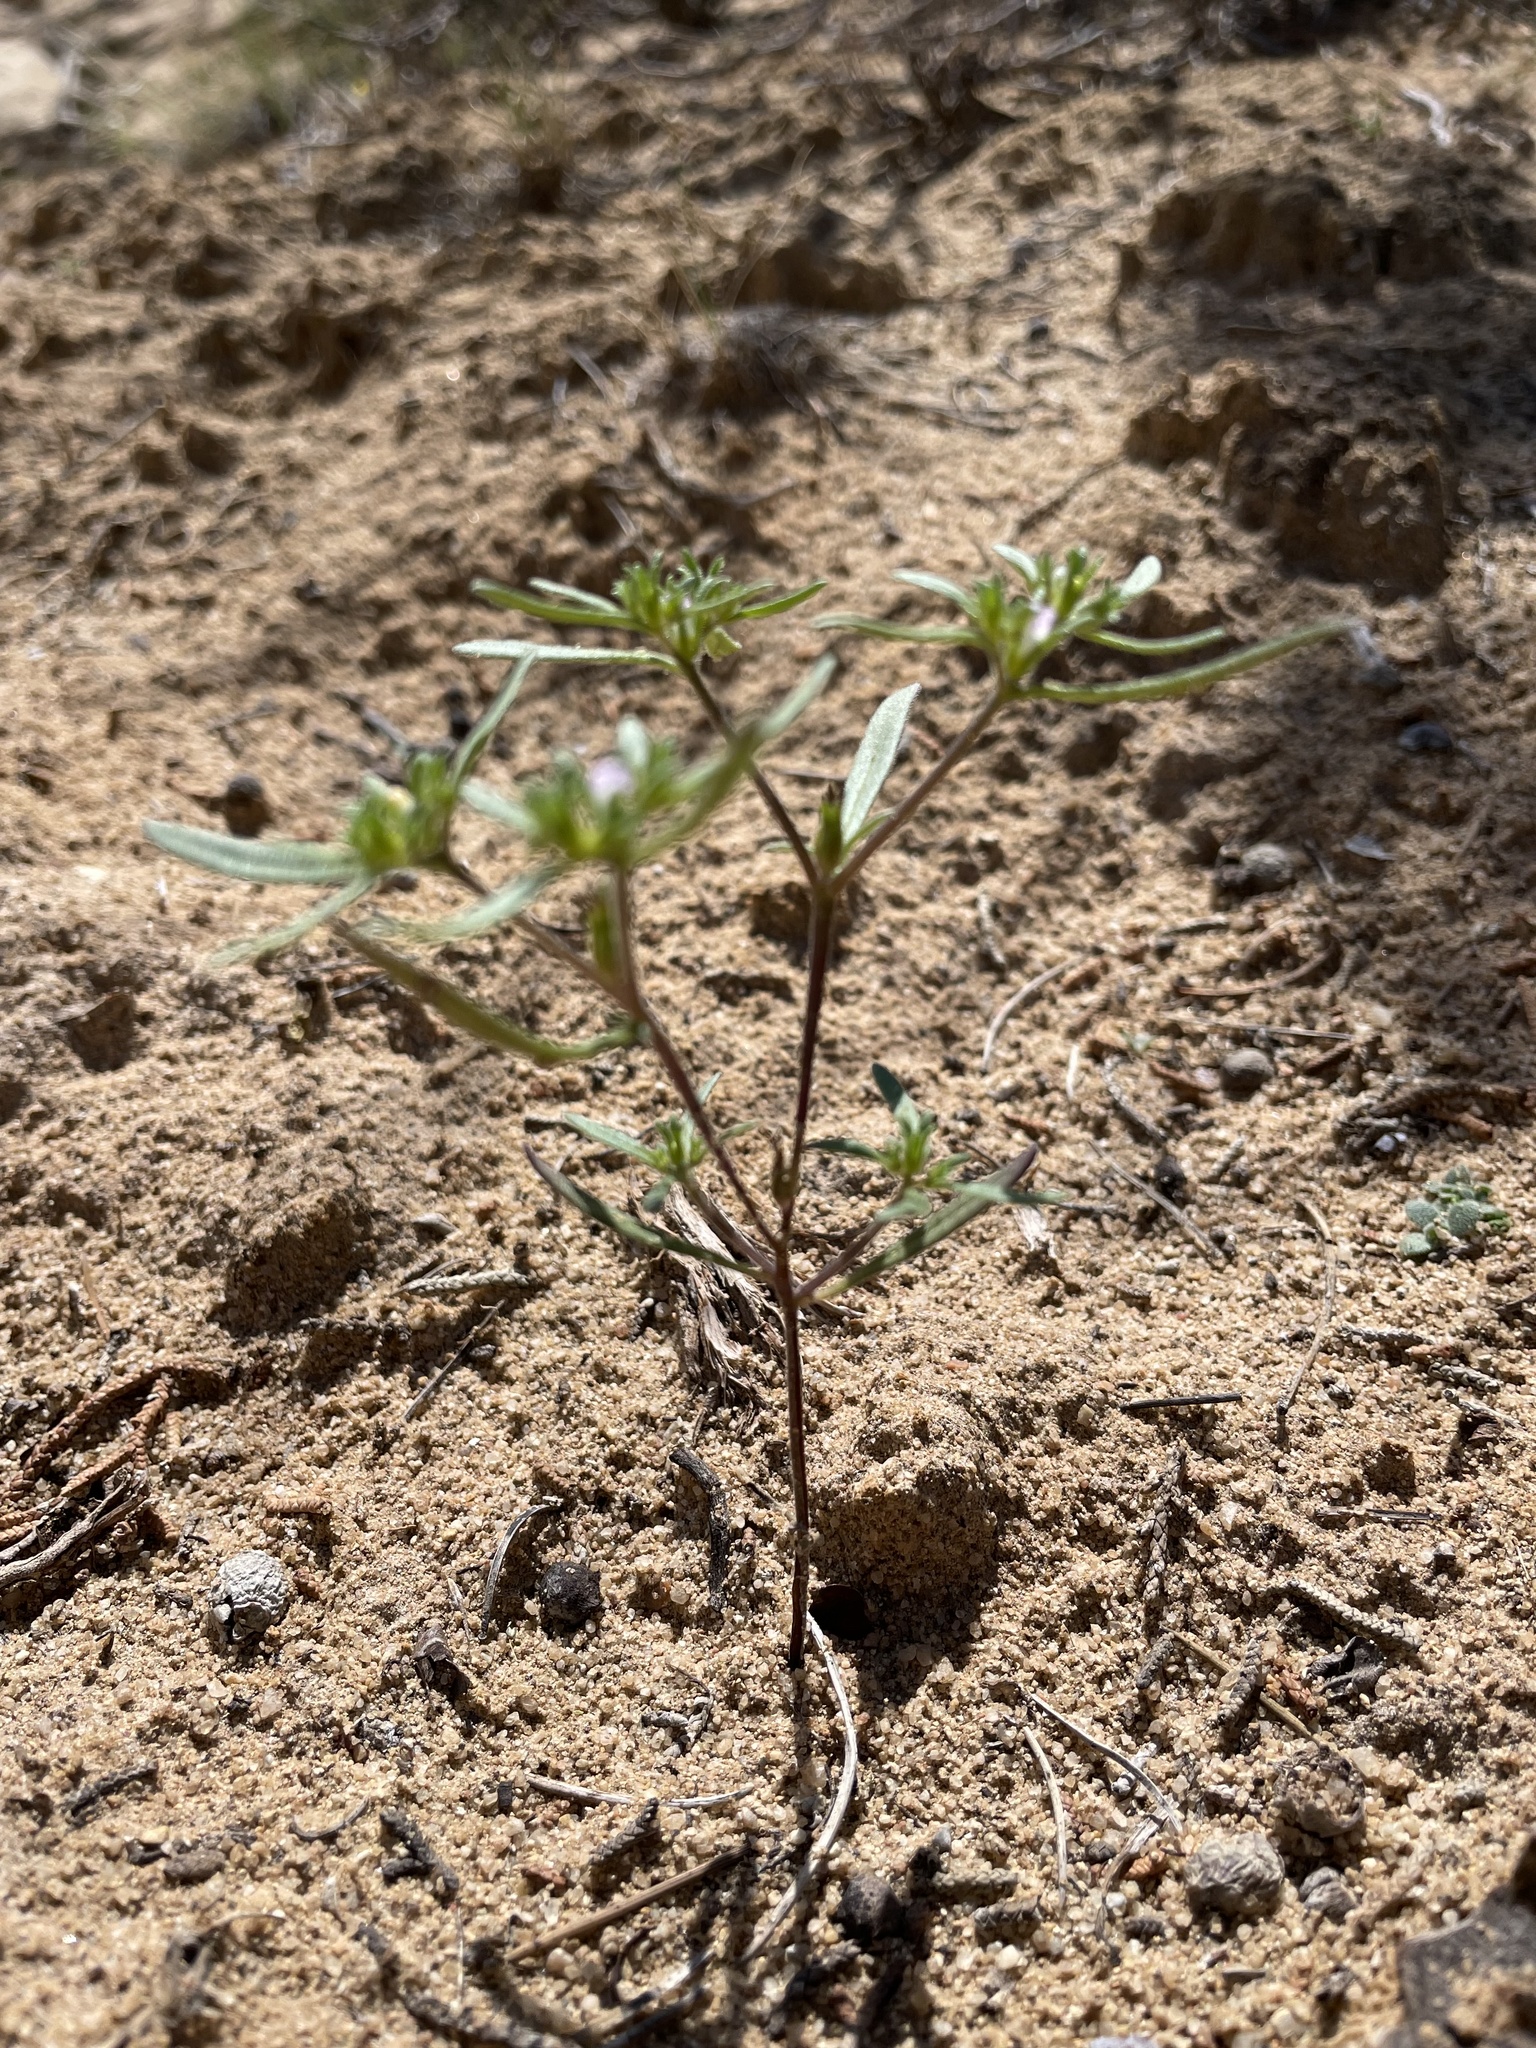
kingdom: Plantae
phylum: Tracheophyta
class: Magnoliopsida
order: Boraginales
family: Namaceae
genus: Nama
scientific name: Nama dichotoma
